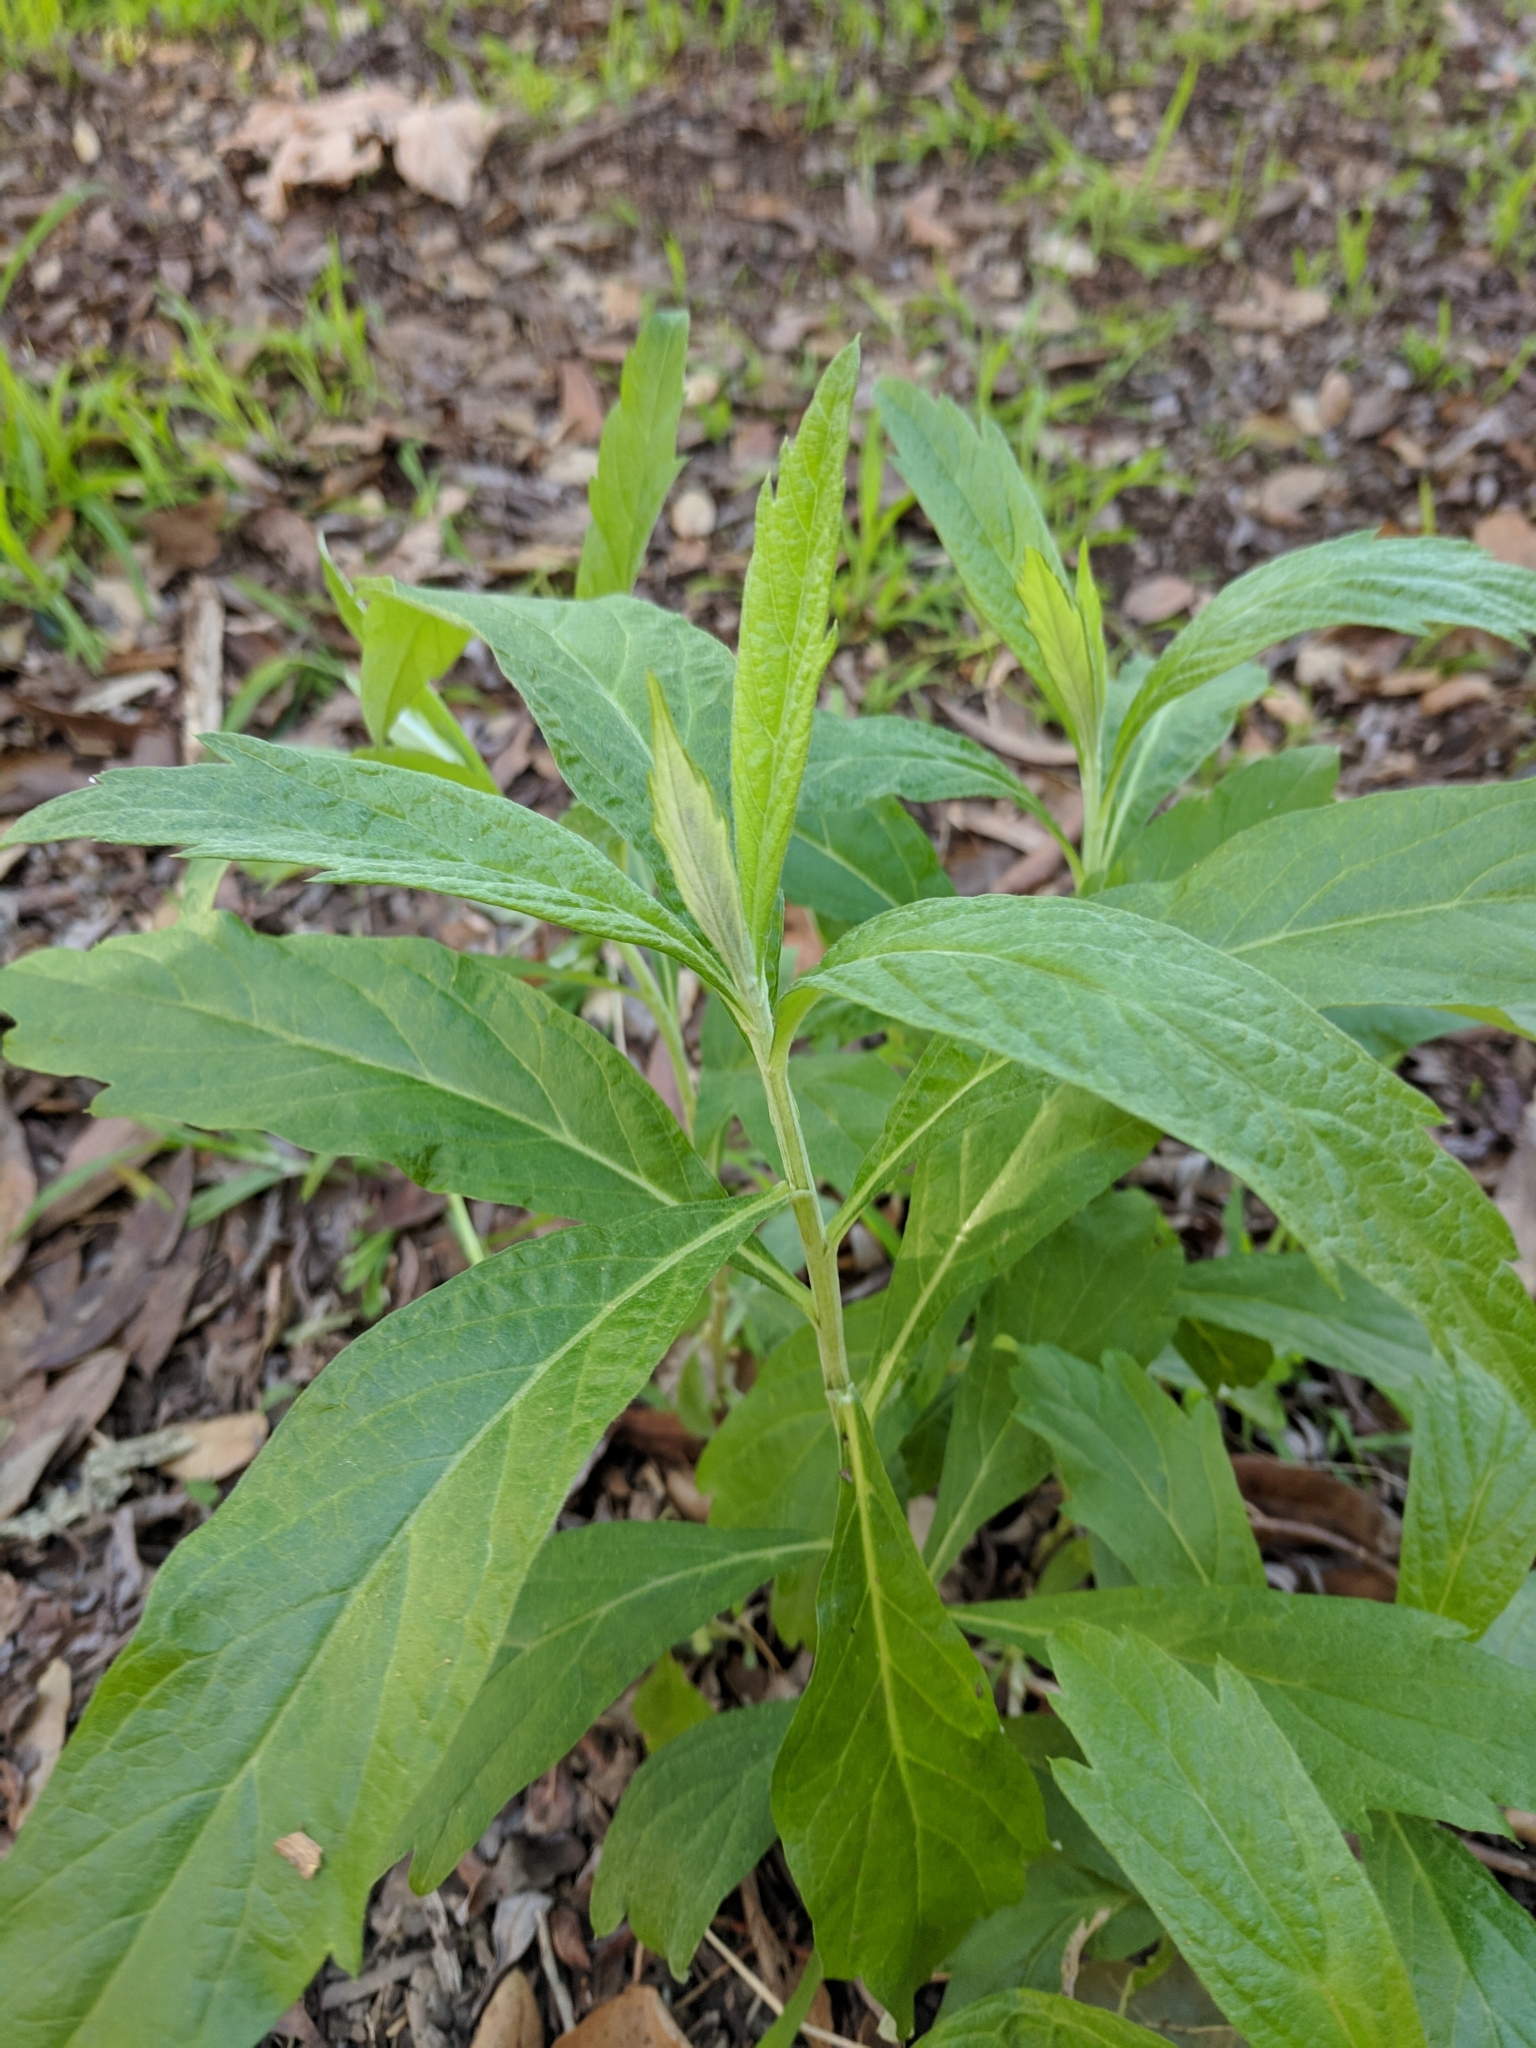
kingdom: Plantae
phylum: Tracheophyta
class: Magnoliopsida
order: Asterales
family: Asteraceae
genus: Artemisia
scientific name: Artemisia douglasiana
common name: Northwest mugwort
